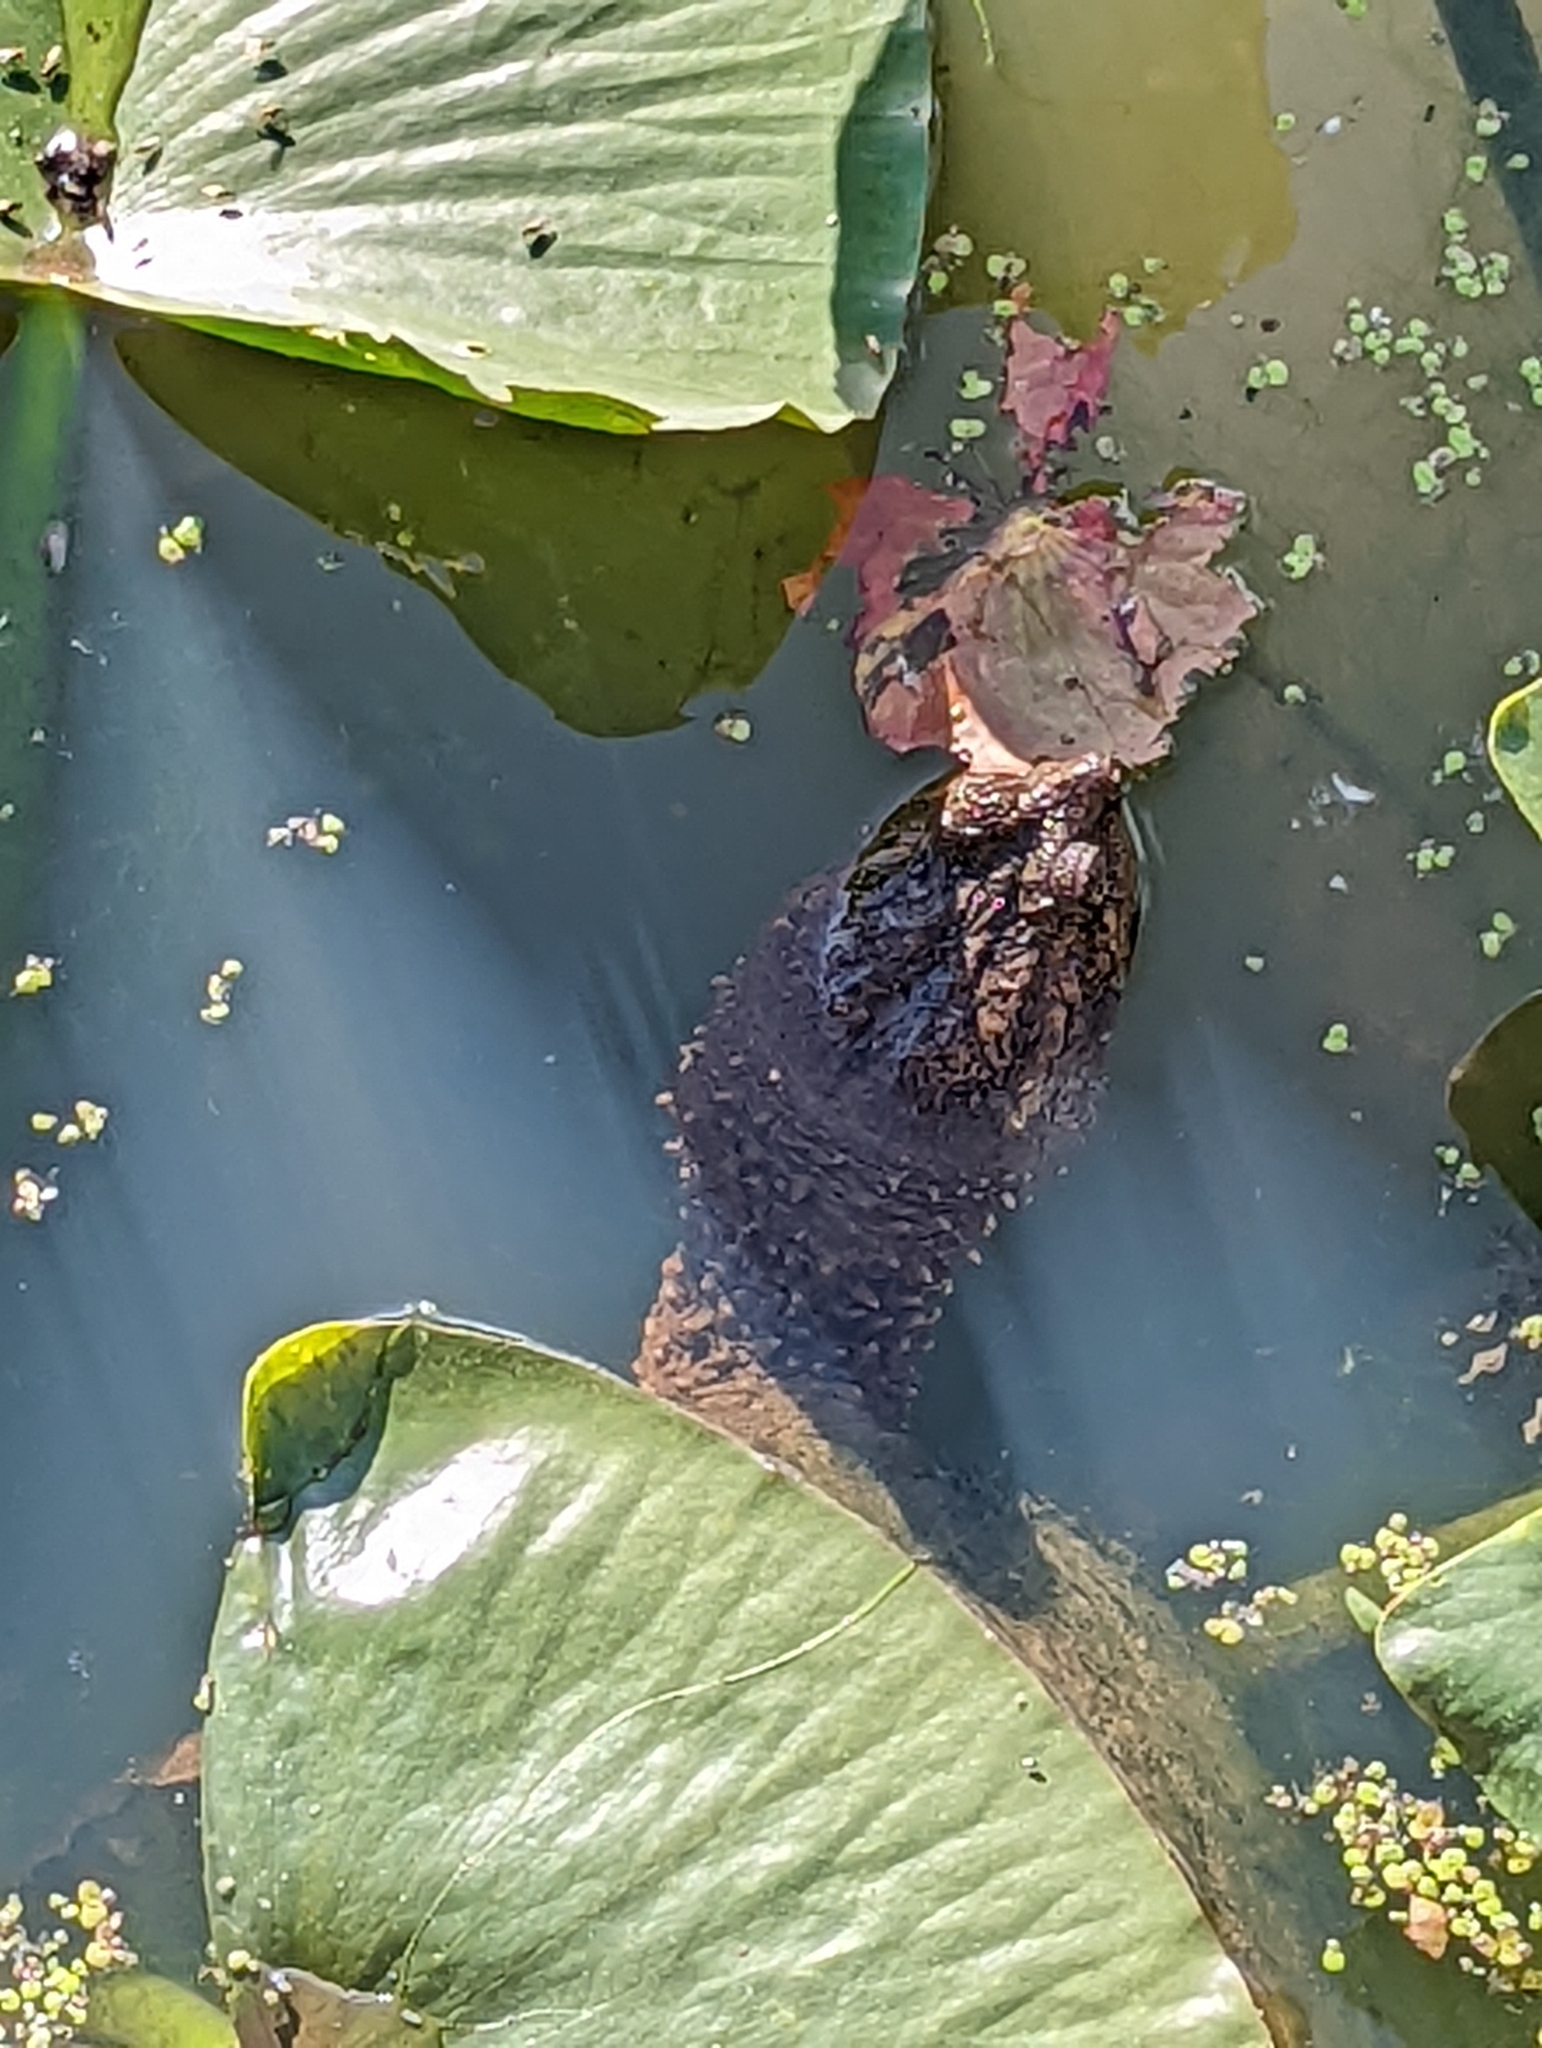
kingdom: Animalia
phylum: Chordata
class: Testudines
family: Chelydridae
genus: Chelydra
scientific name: Chelydra serpentina
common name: Common snapping turtle
